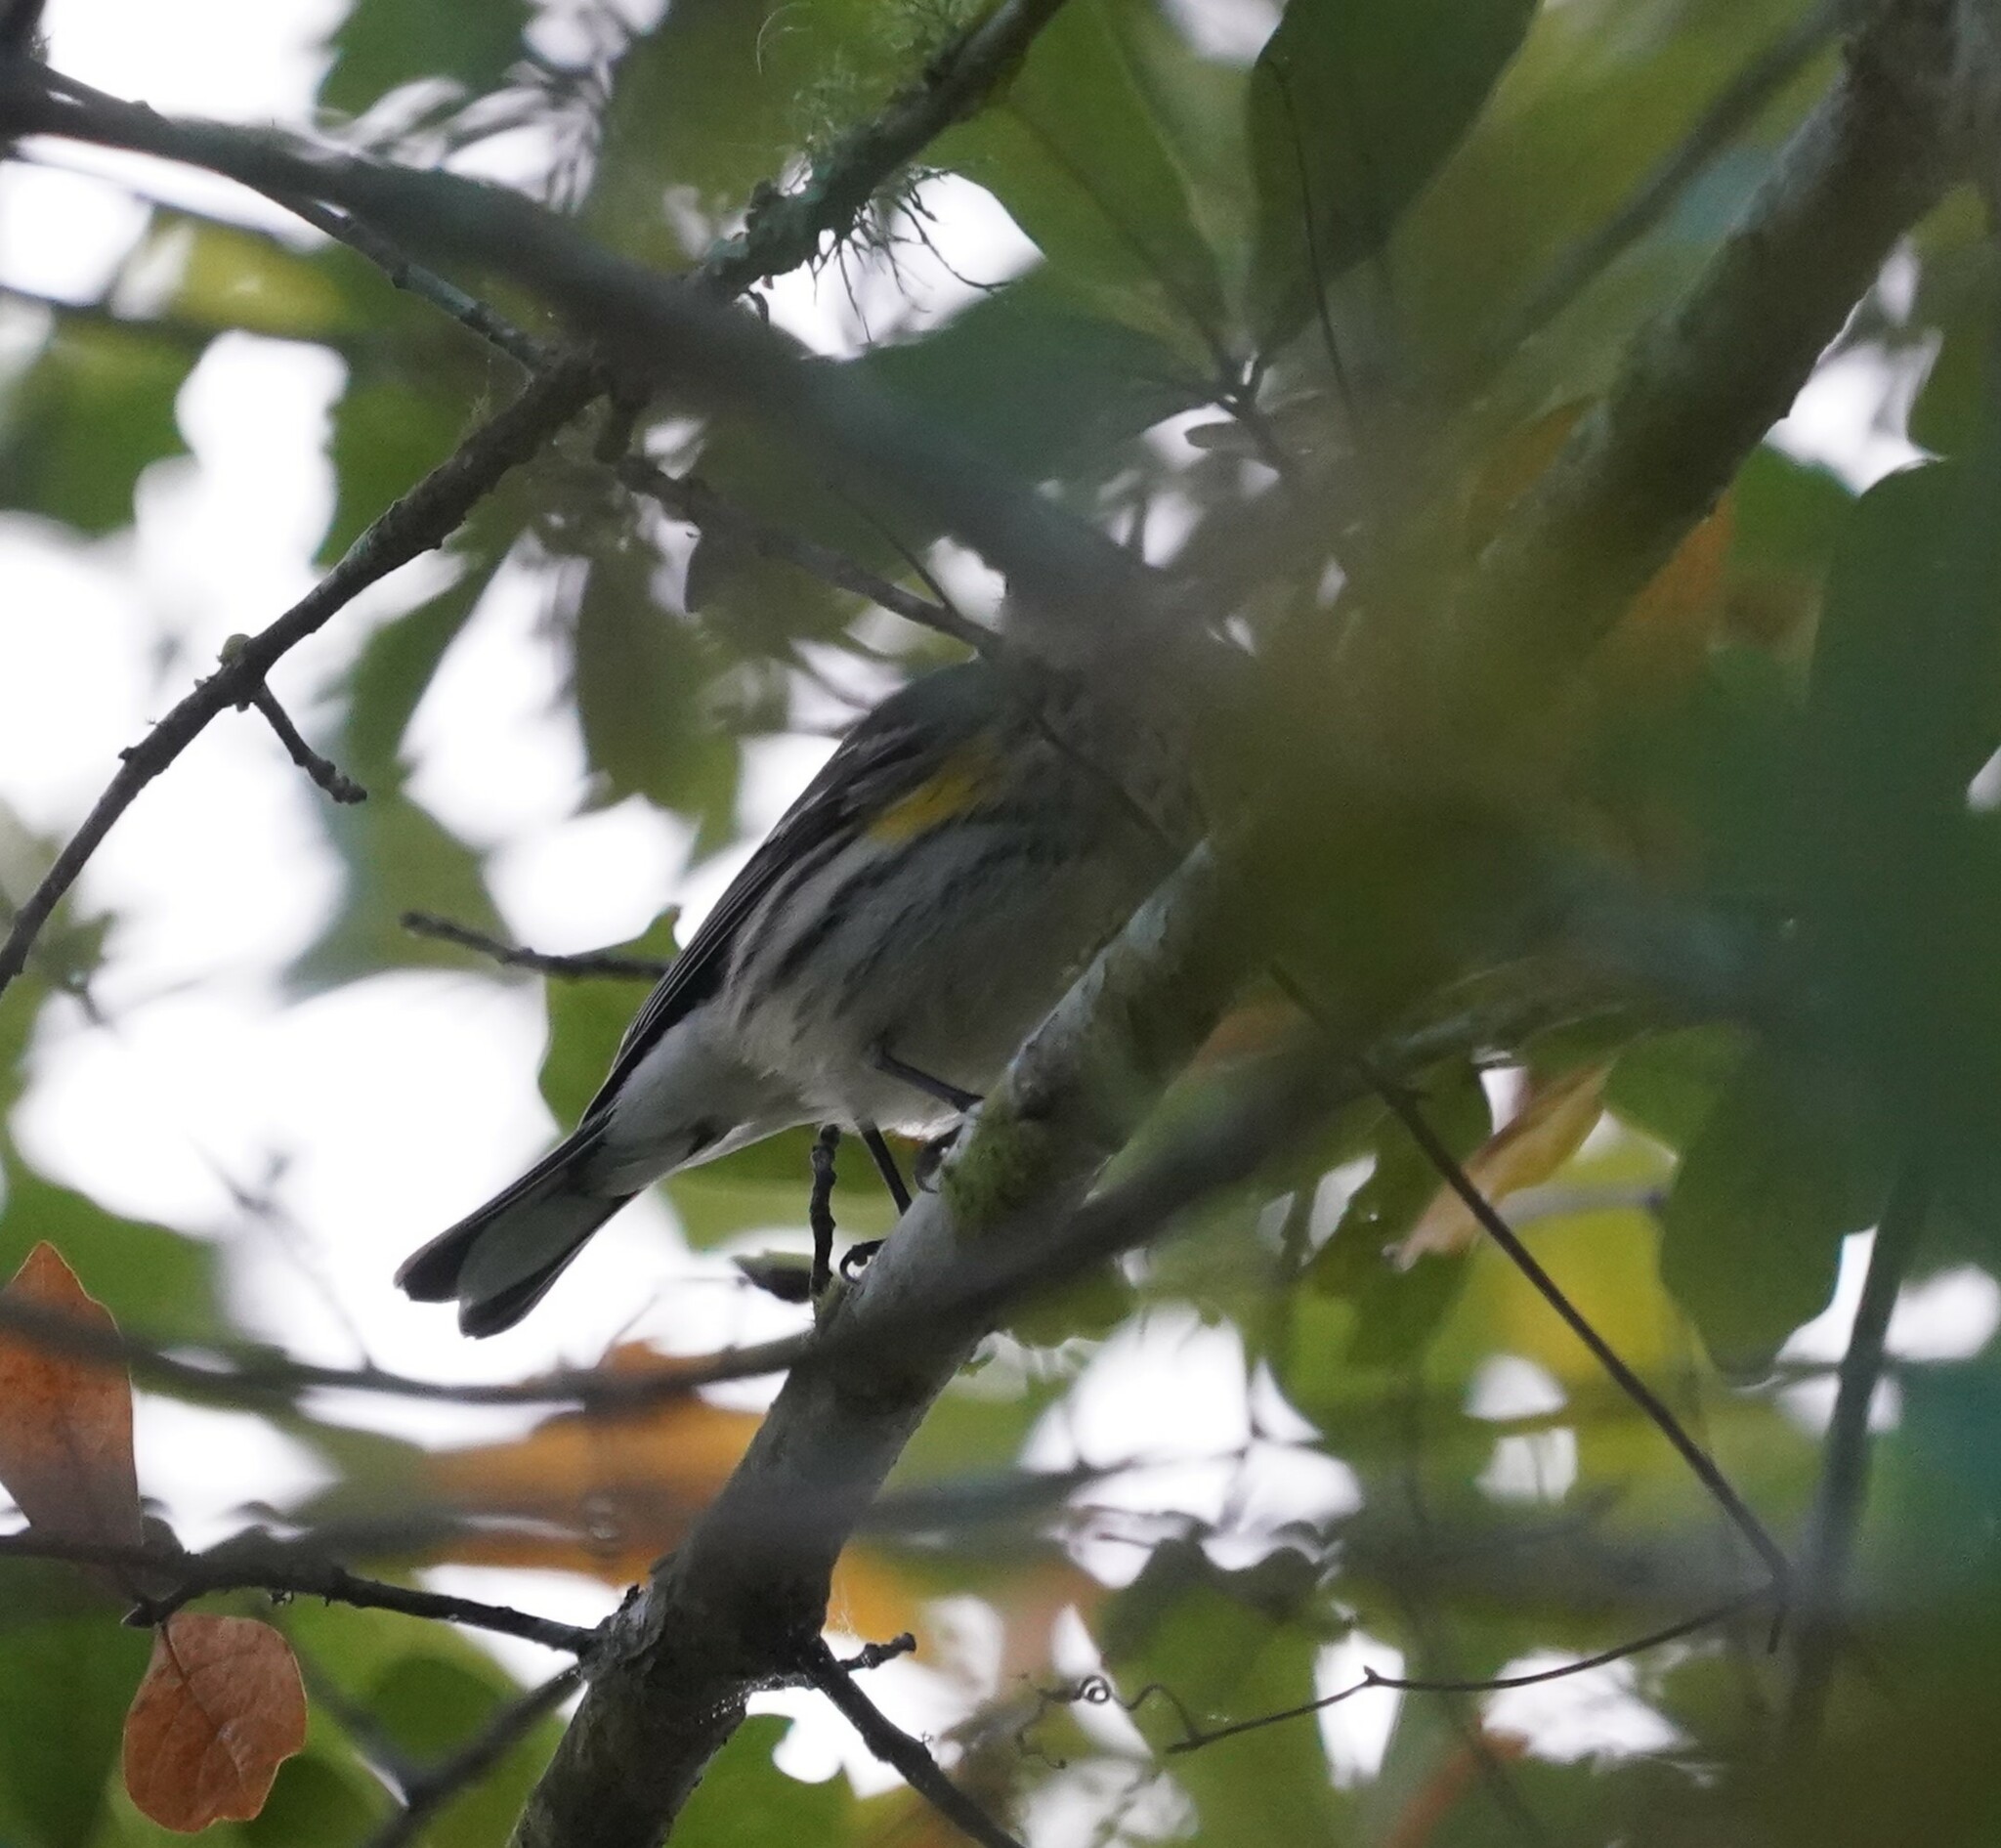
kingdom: Animalia
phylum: Chordata
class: Aves
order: Passeriformes
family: Parulidae
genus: Setophaga
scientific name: Setophaga coronata
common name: Myrtle warbler
